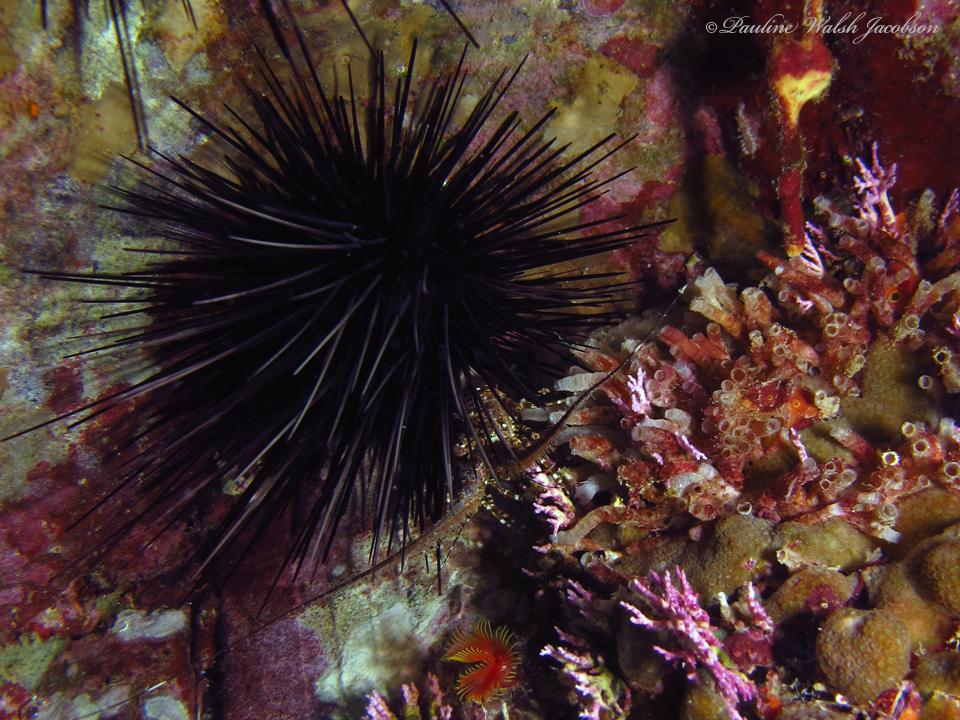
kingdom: Animalia
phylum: Arthropoda
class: Malacostraca
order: Decapoda
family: Palinuridae
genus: Panulirus
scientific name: Panulirus argus
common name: Caribbean spiny lobster
